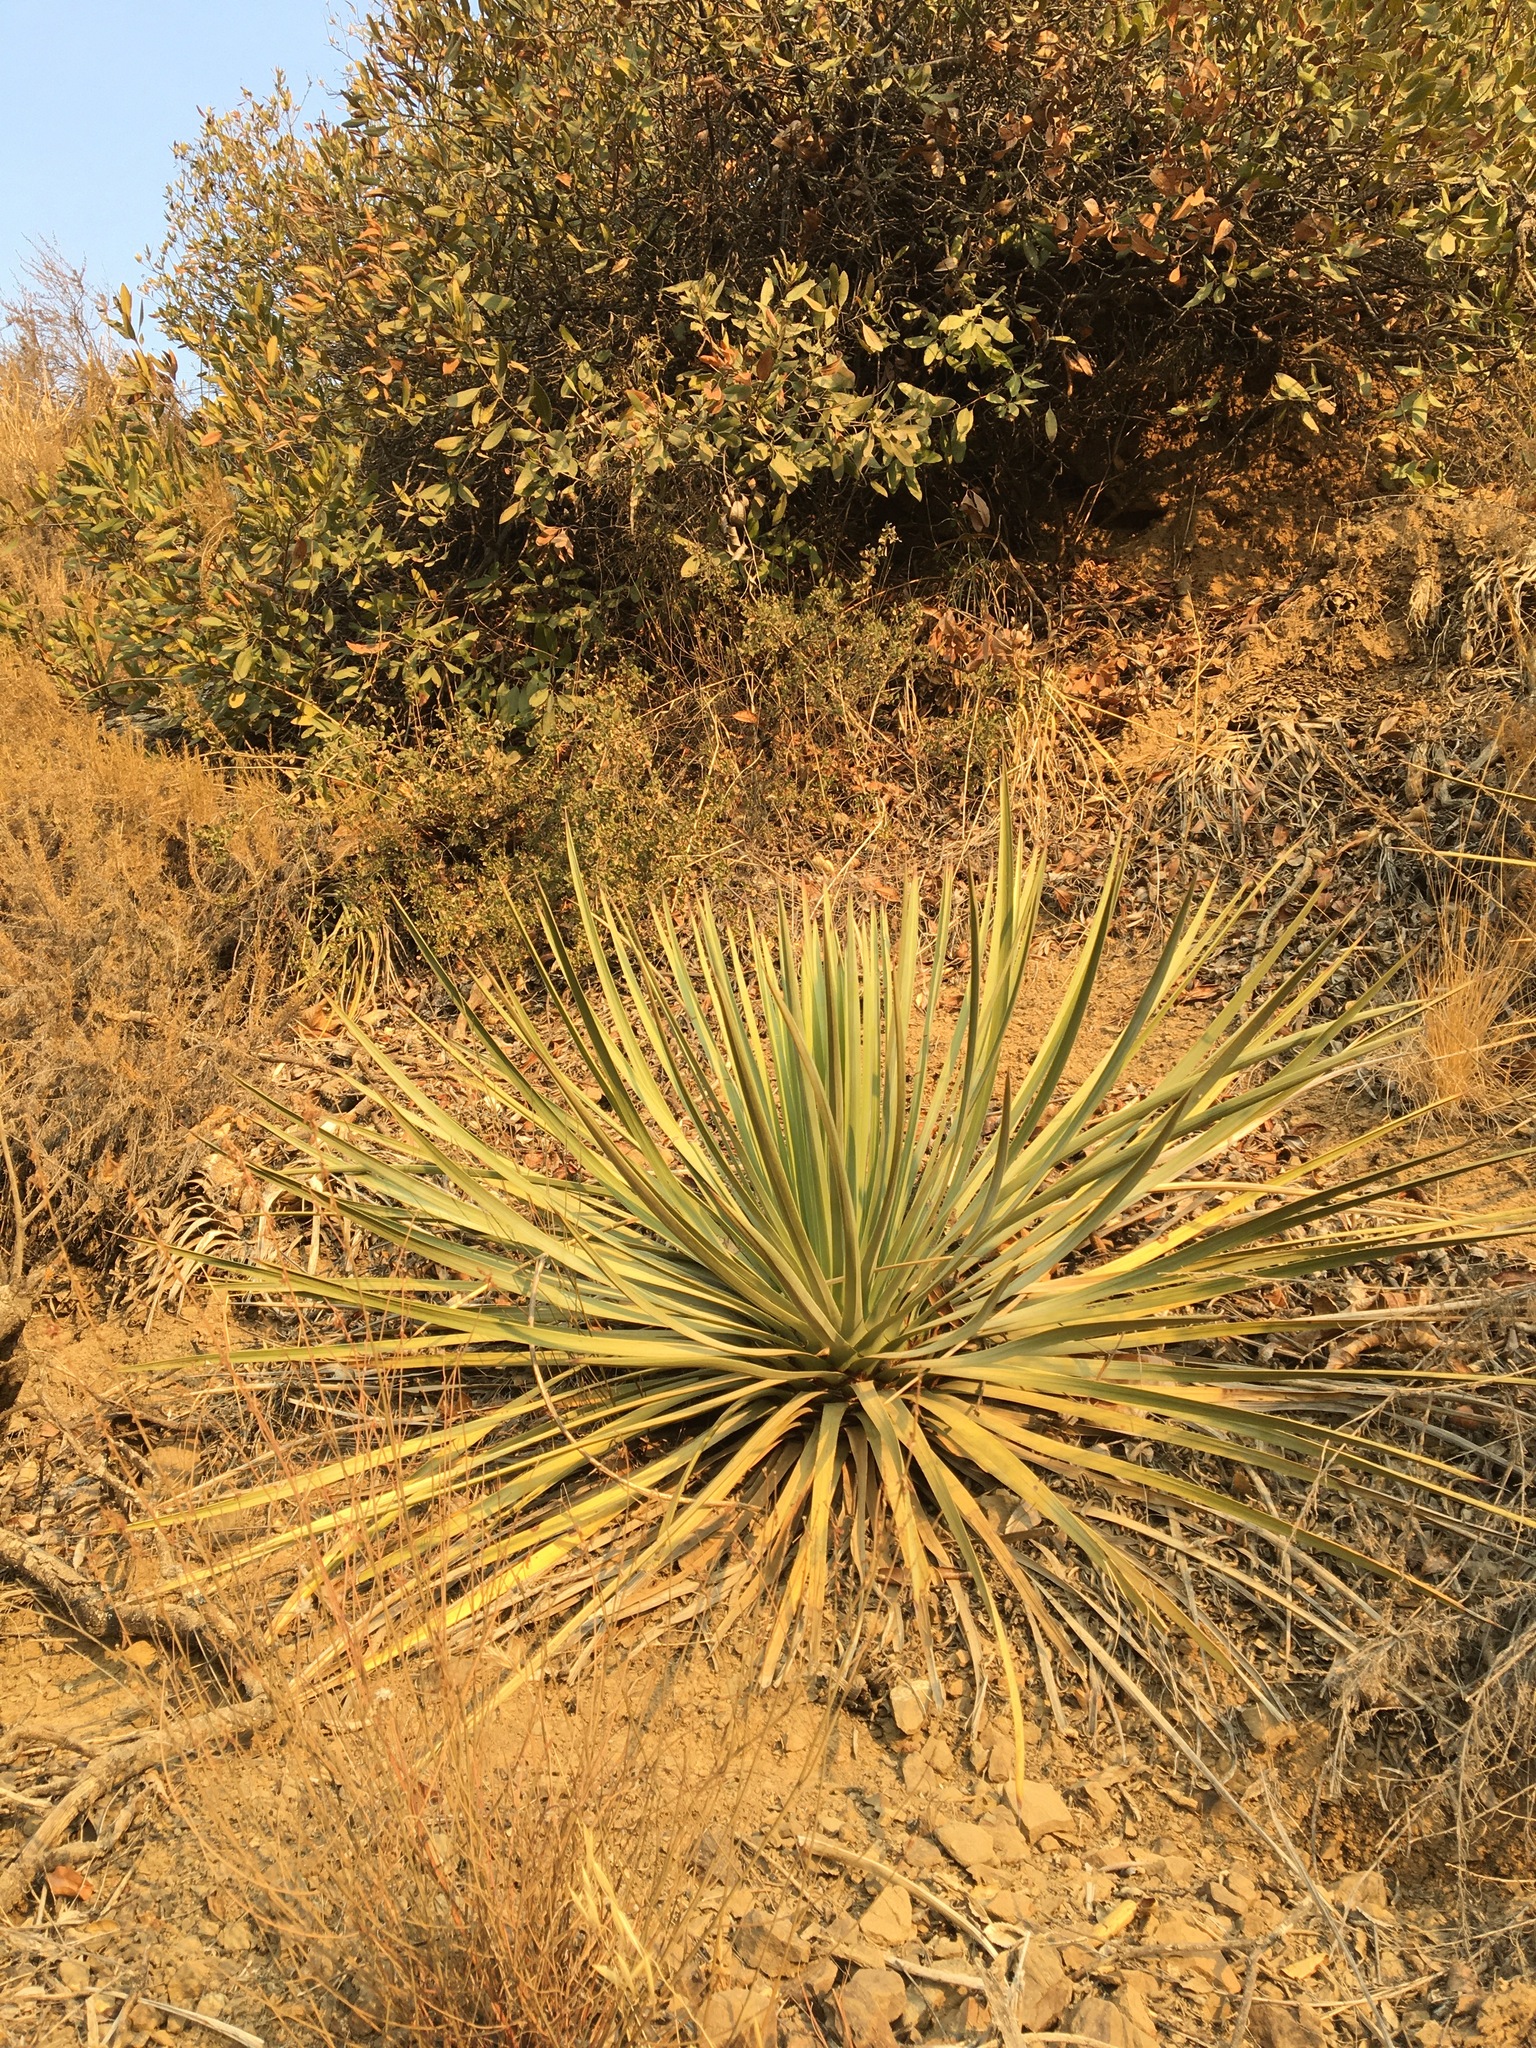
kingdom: Plantae
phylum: Tracheophyta
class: Liliopsida
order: Asparagales
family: Asparagaceae
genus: Hesperoyucca
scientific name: Hesperoyucca whipplei
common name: Our lord's-candle
